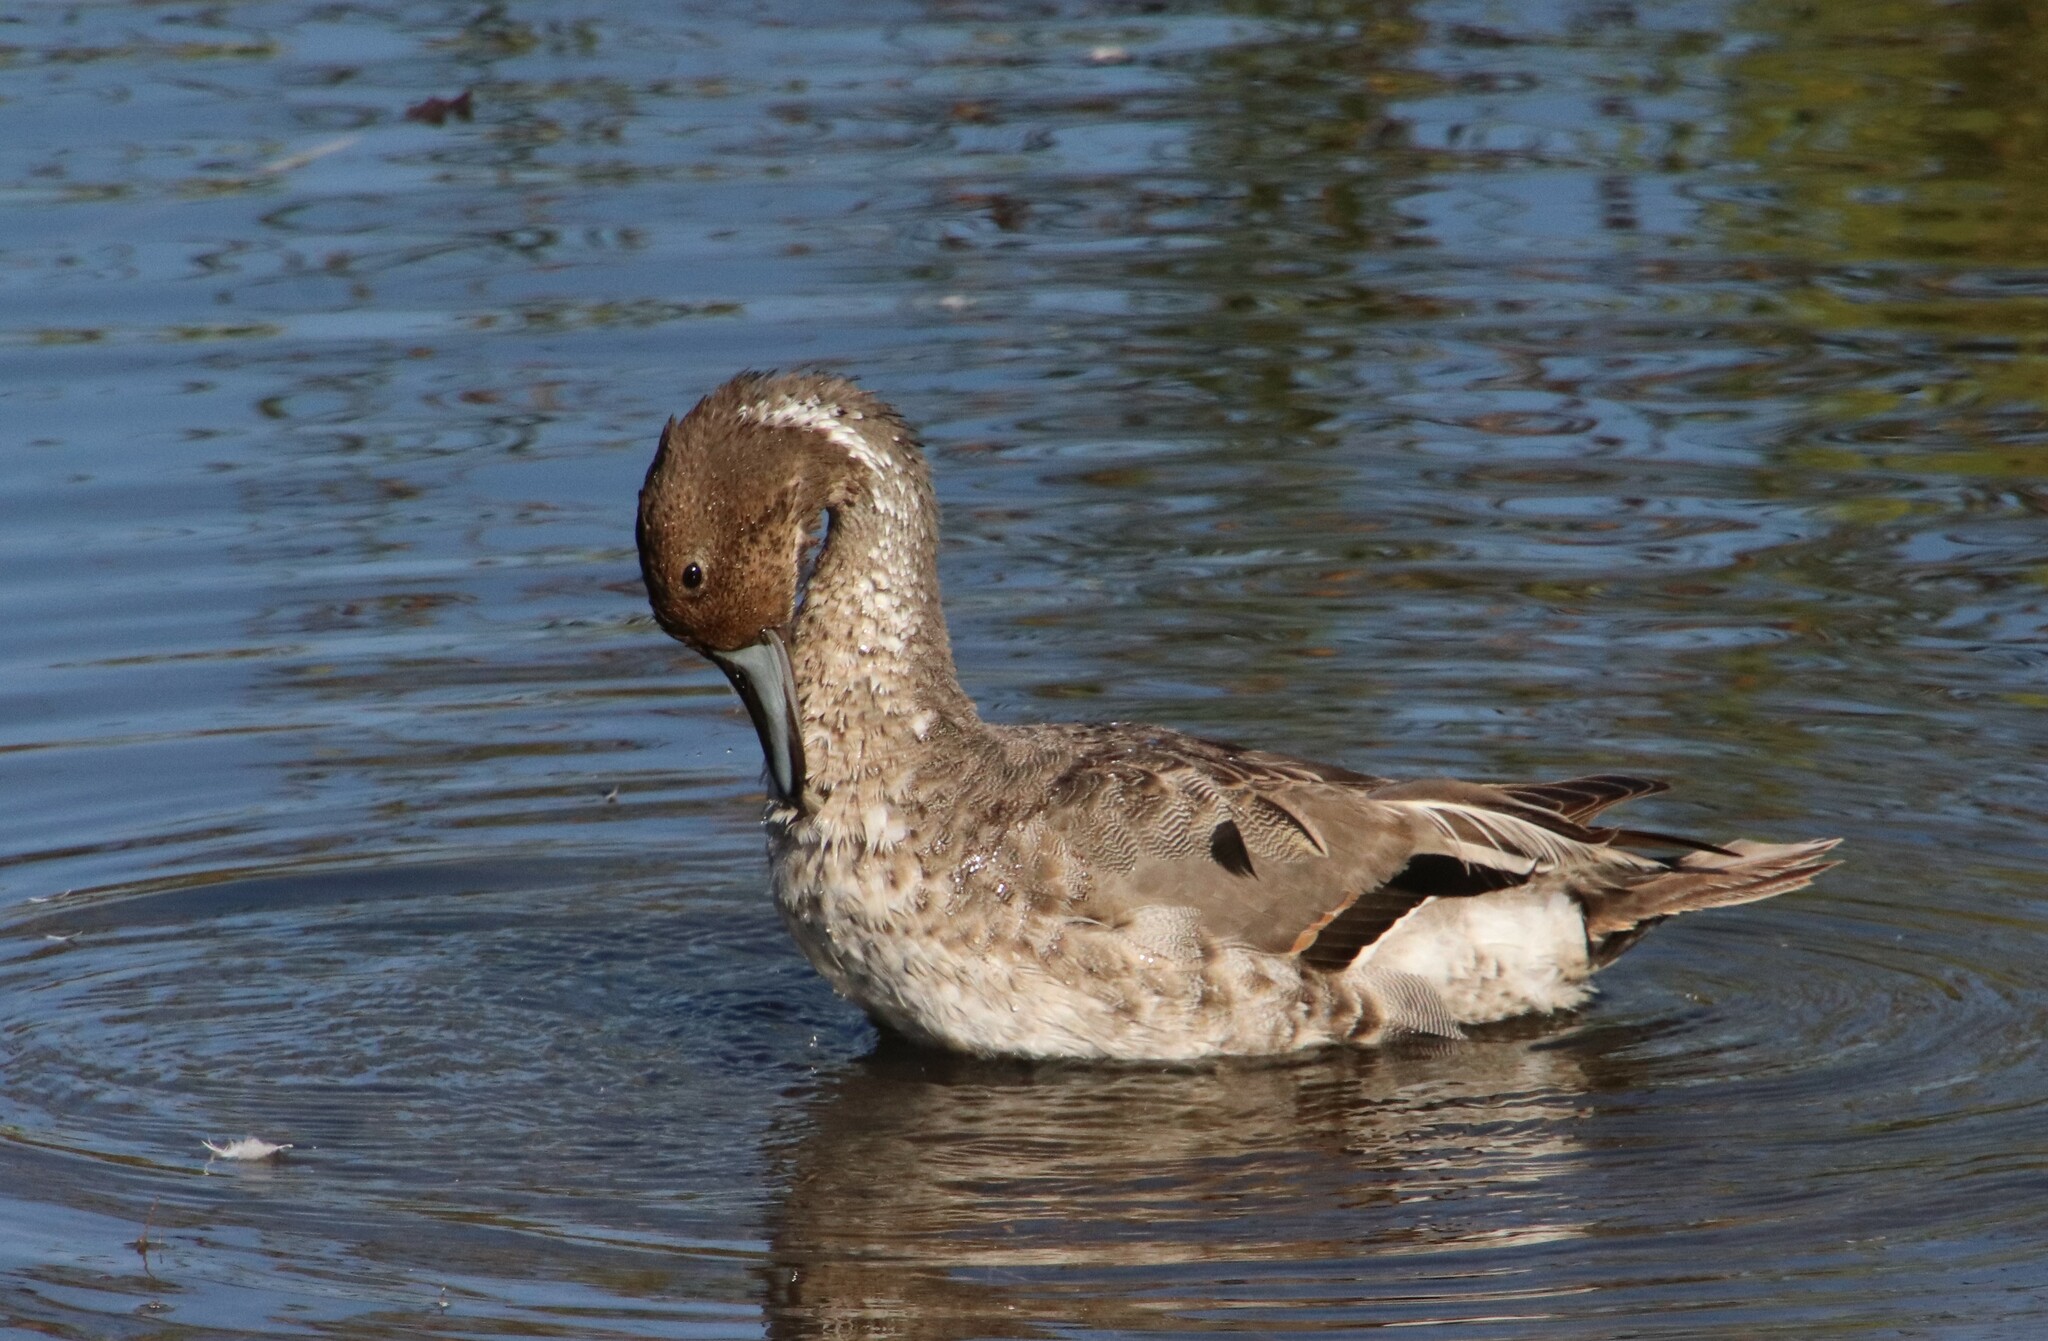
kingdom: Animalia
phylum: Chordata
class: Aves
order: Anseriformes
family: Anatidae
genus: Anas
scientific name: Anas acuta
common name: Northern pintail
